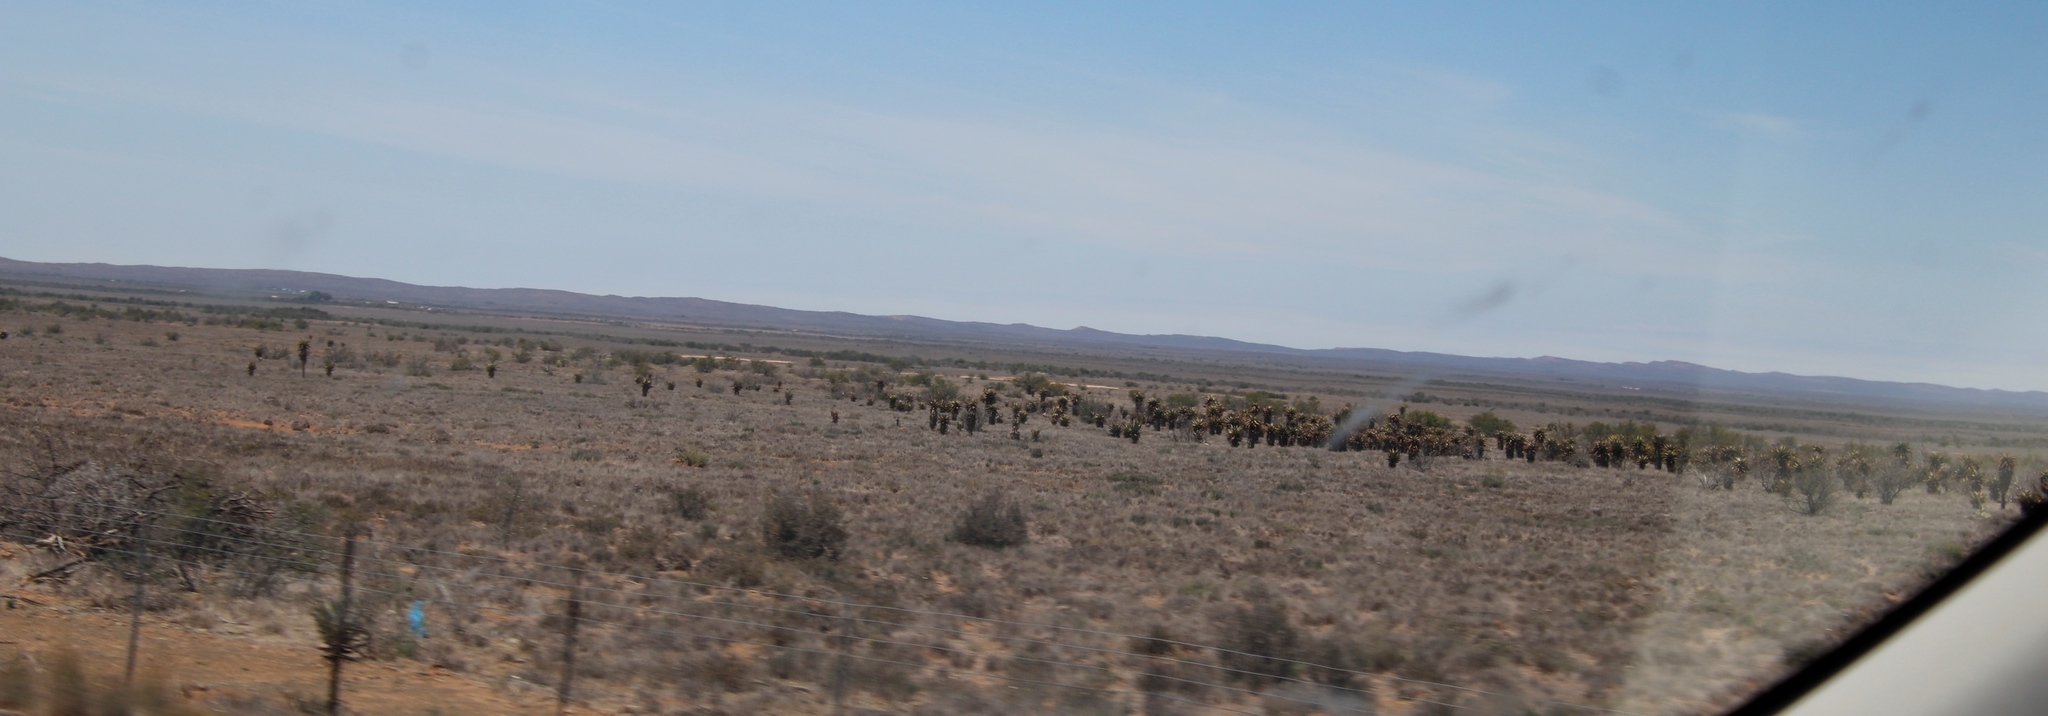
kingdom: Plantae
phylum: Tracheophyta
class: Liliopsida
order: Asparagales
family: Asphodelaceae
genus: Aloe
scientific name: Aloe ferox
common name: Bitter aloe
